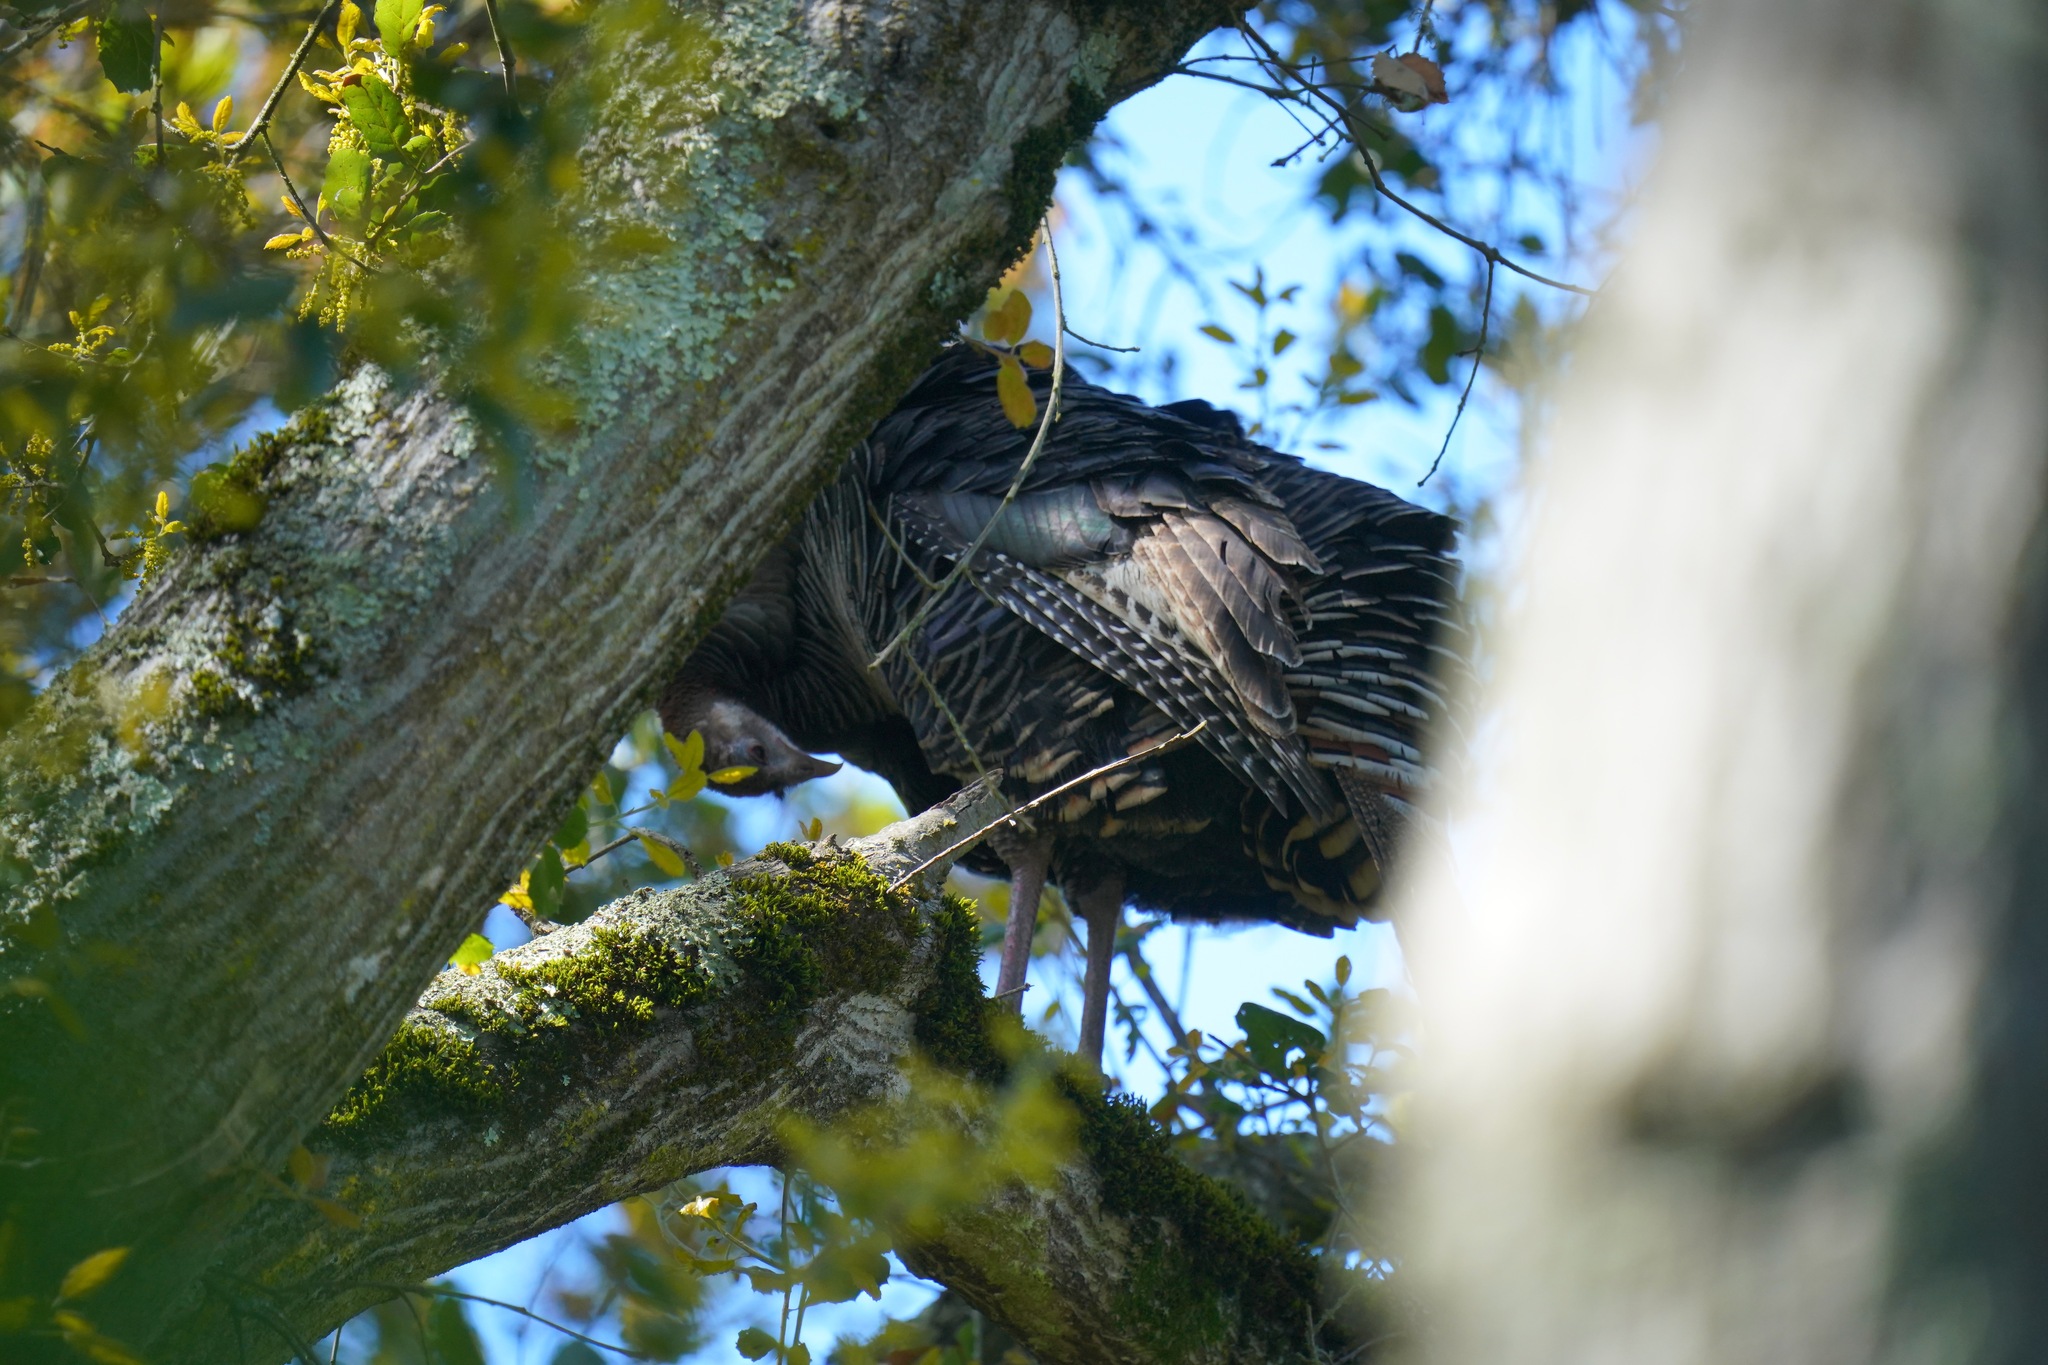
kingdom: Animalia
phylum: Chordata
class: Aves
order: Galliformes
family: Phasianidae
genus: Meleagris
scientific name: Meleagris gallopavo
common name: Wild turkey
